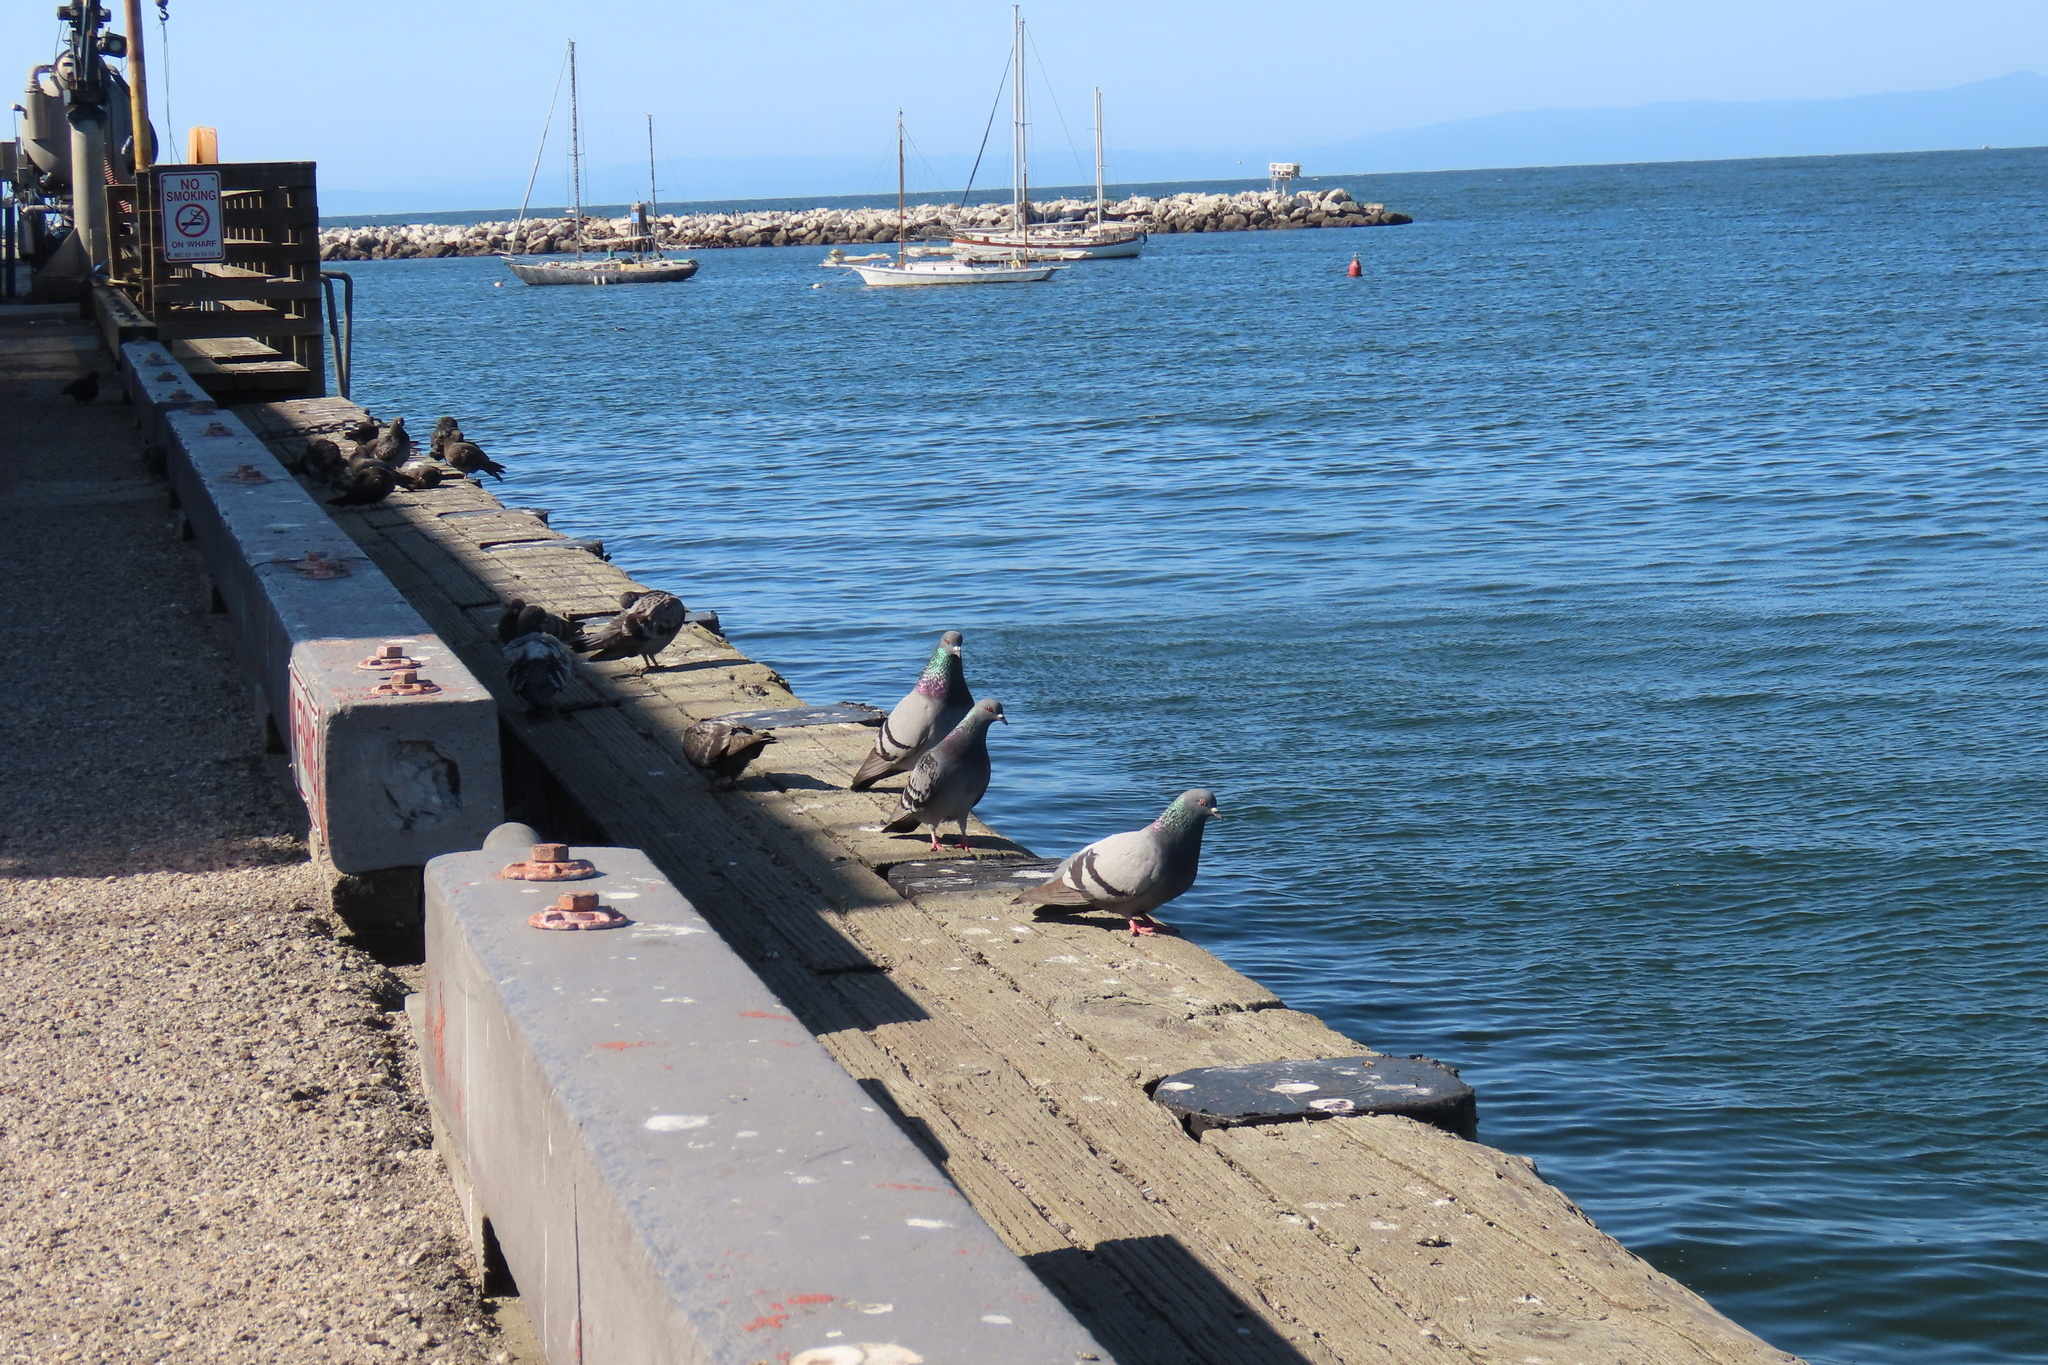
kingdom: Animalia
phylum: Chordata
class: Aves
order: Columbiformes
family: Columbidae
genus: Columba
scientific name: Columba livia
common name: Rock pigeon
